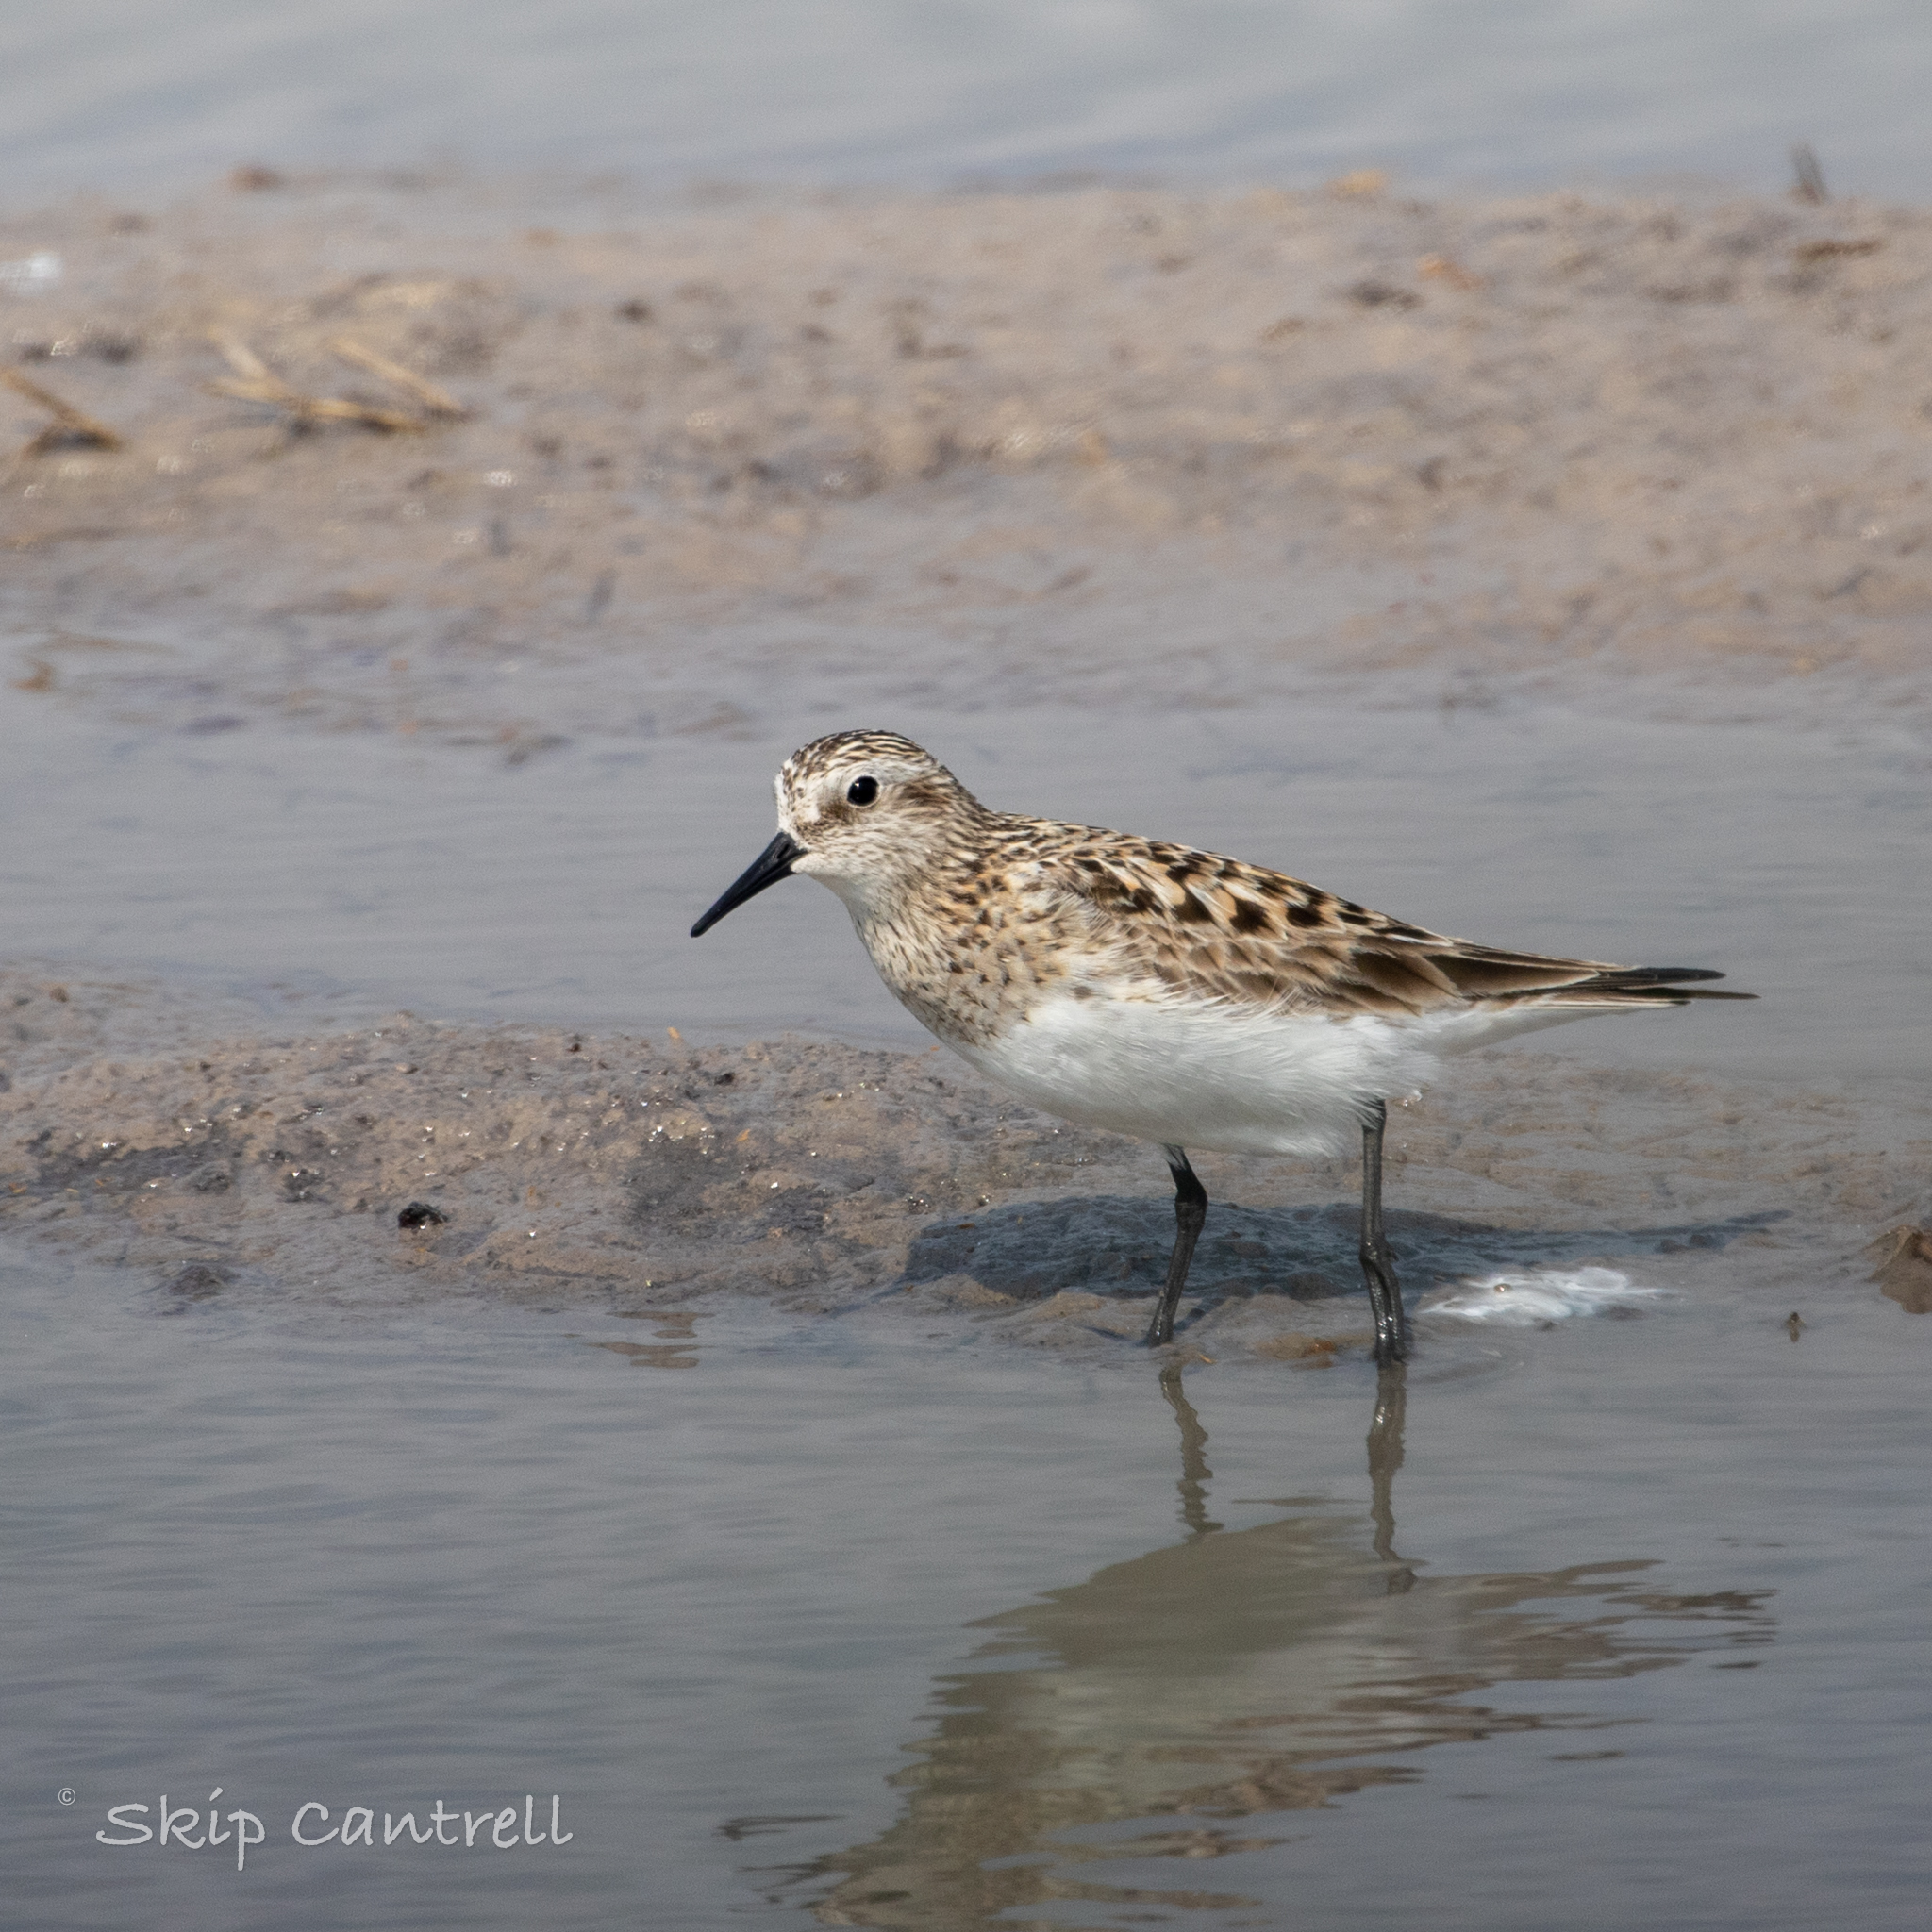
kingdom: Animalia
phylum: Chordata
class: Aves
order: Charadriiformes
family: Scolopacidae
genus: Calidris
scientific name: Calidris bairdii
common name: Baird's sandpiper
